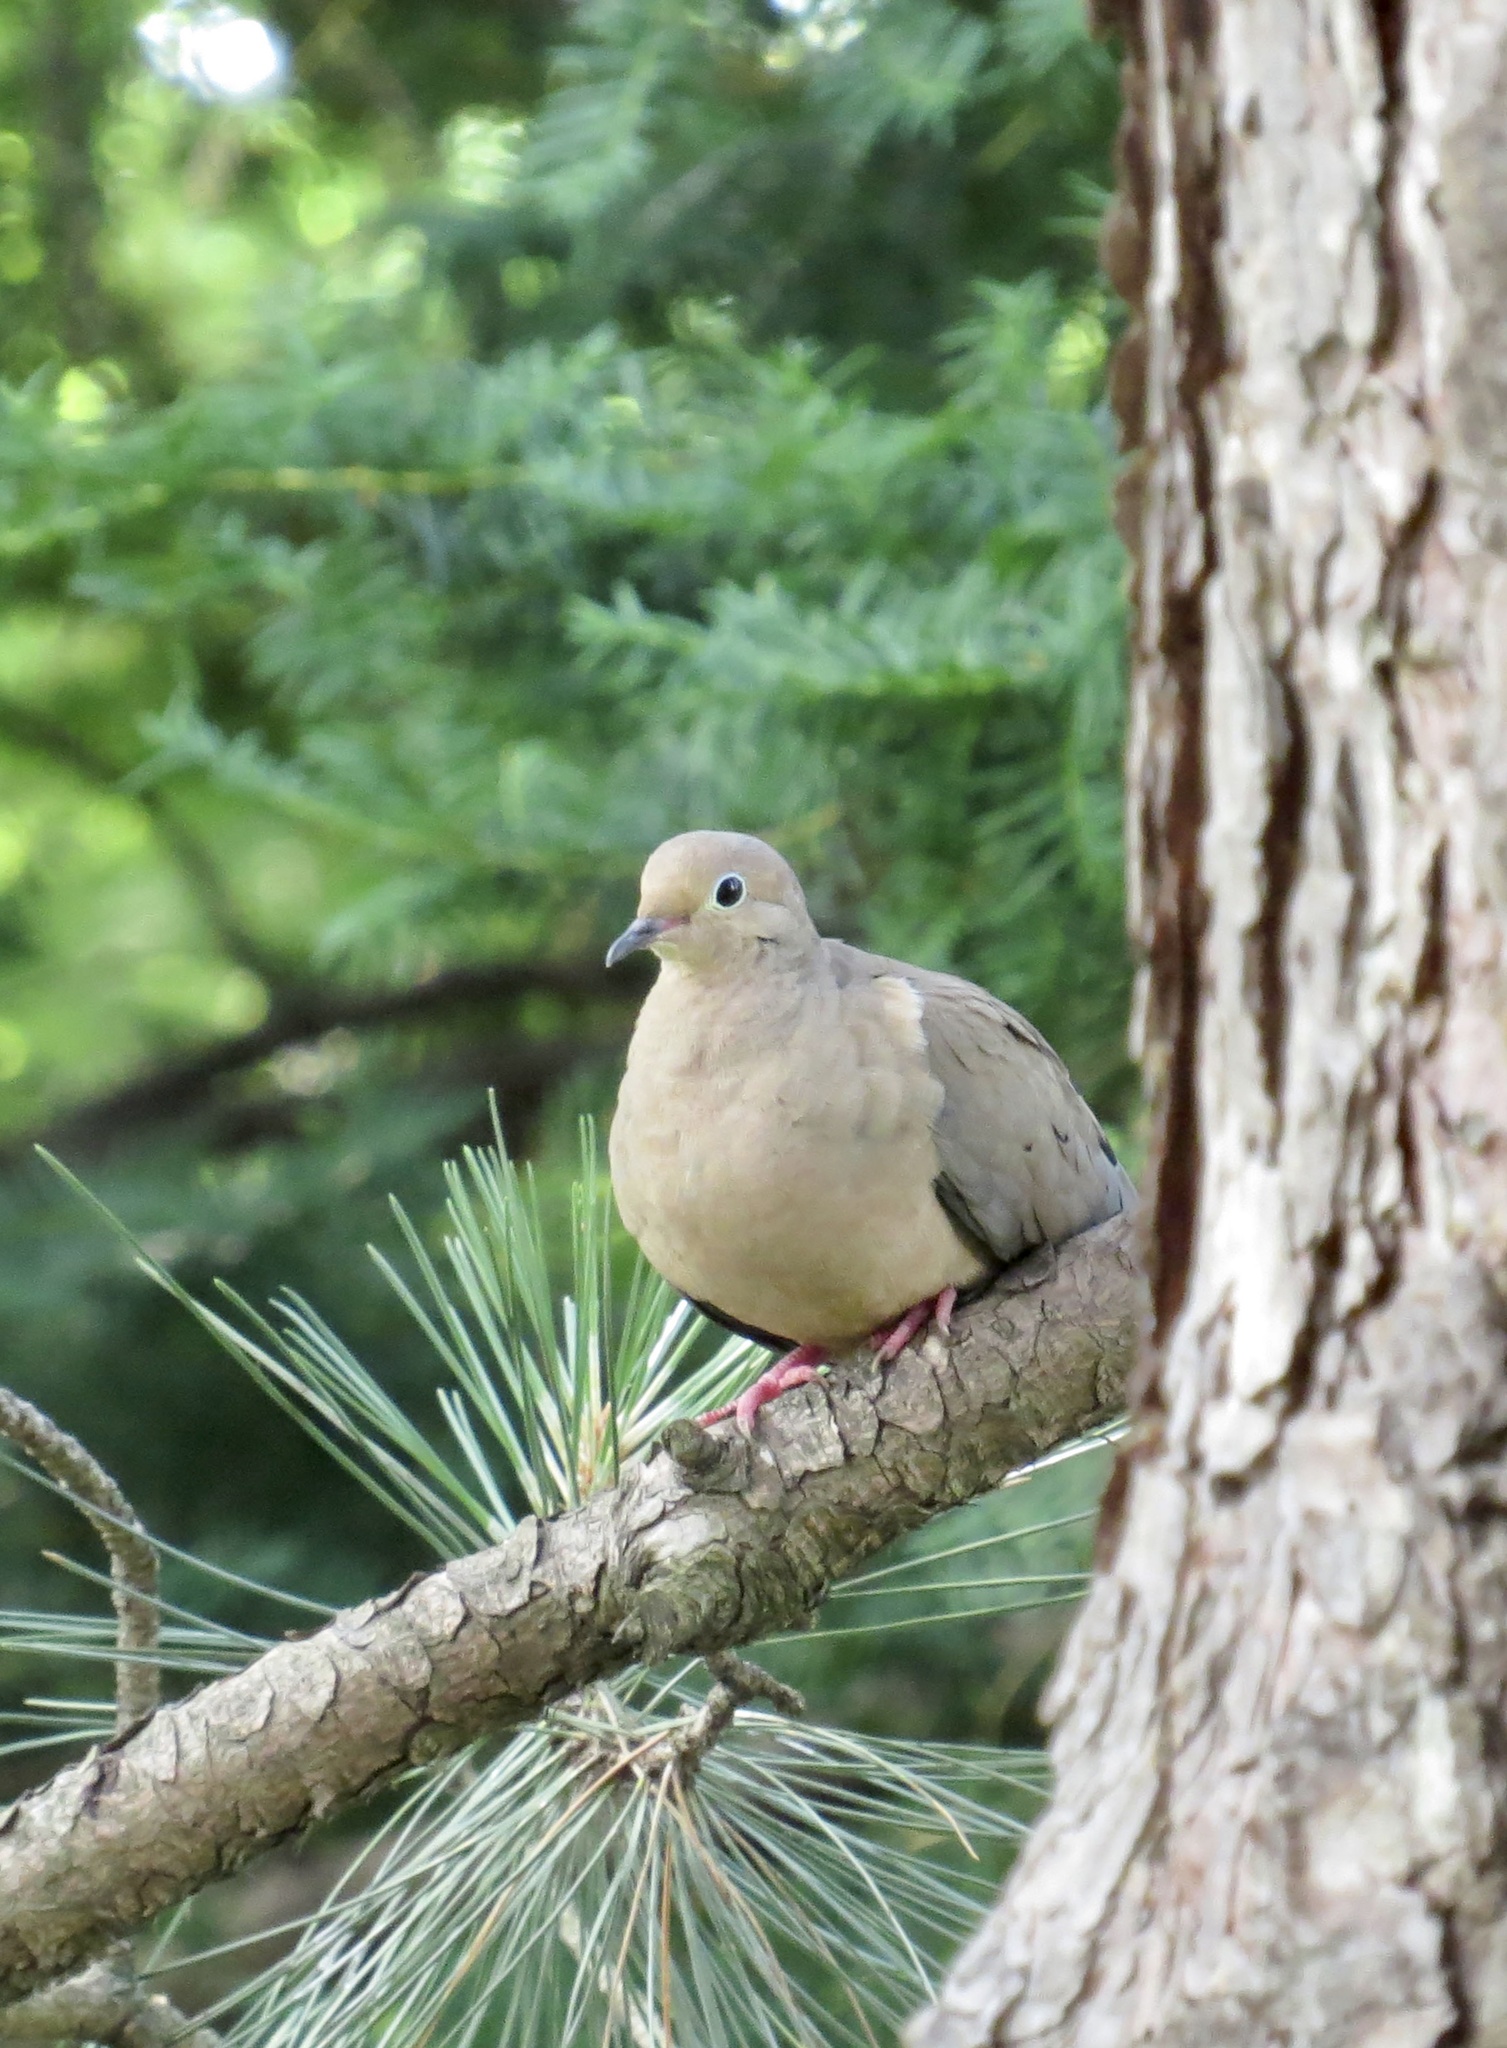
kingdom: Animalia
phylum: Chordata
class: Aves
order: Columbiformes
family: Columbidae
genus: Zenaida
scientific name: Zenaida macroura
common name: Mourning dove
